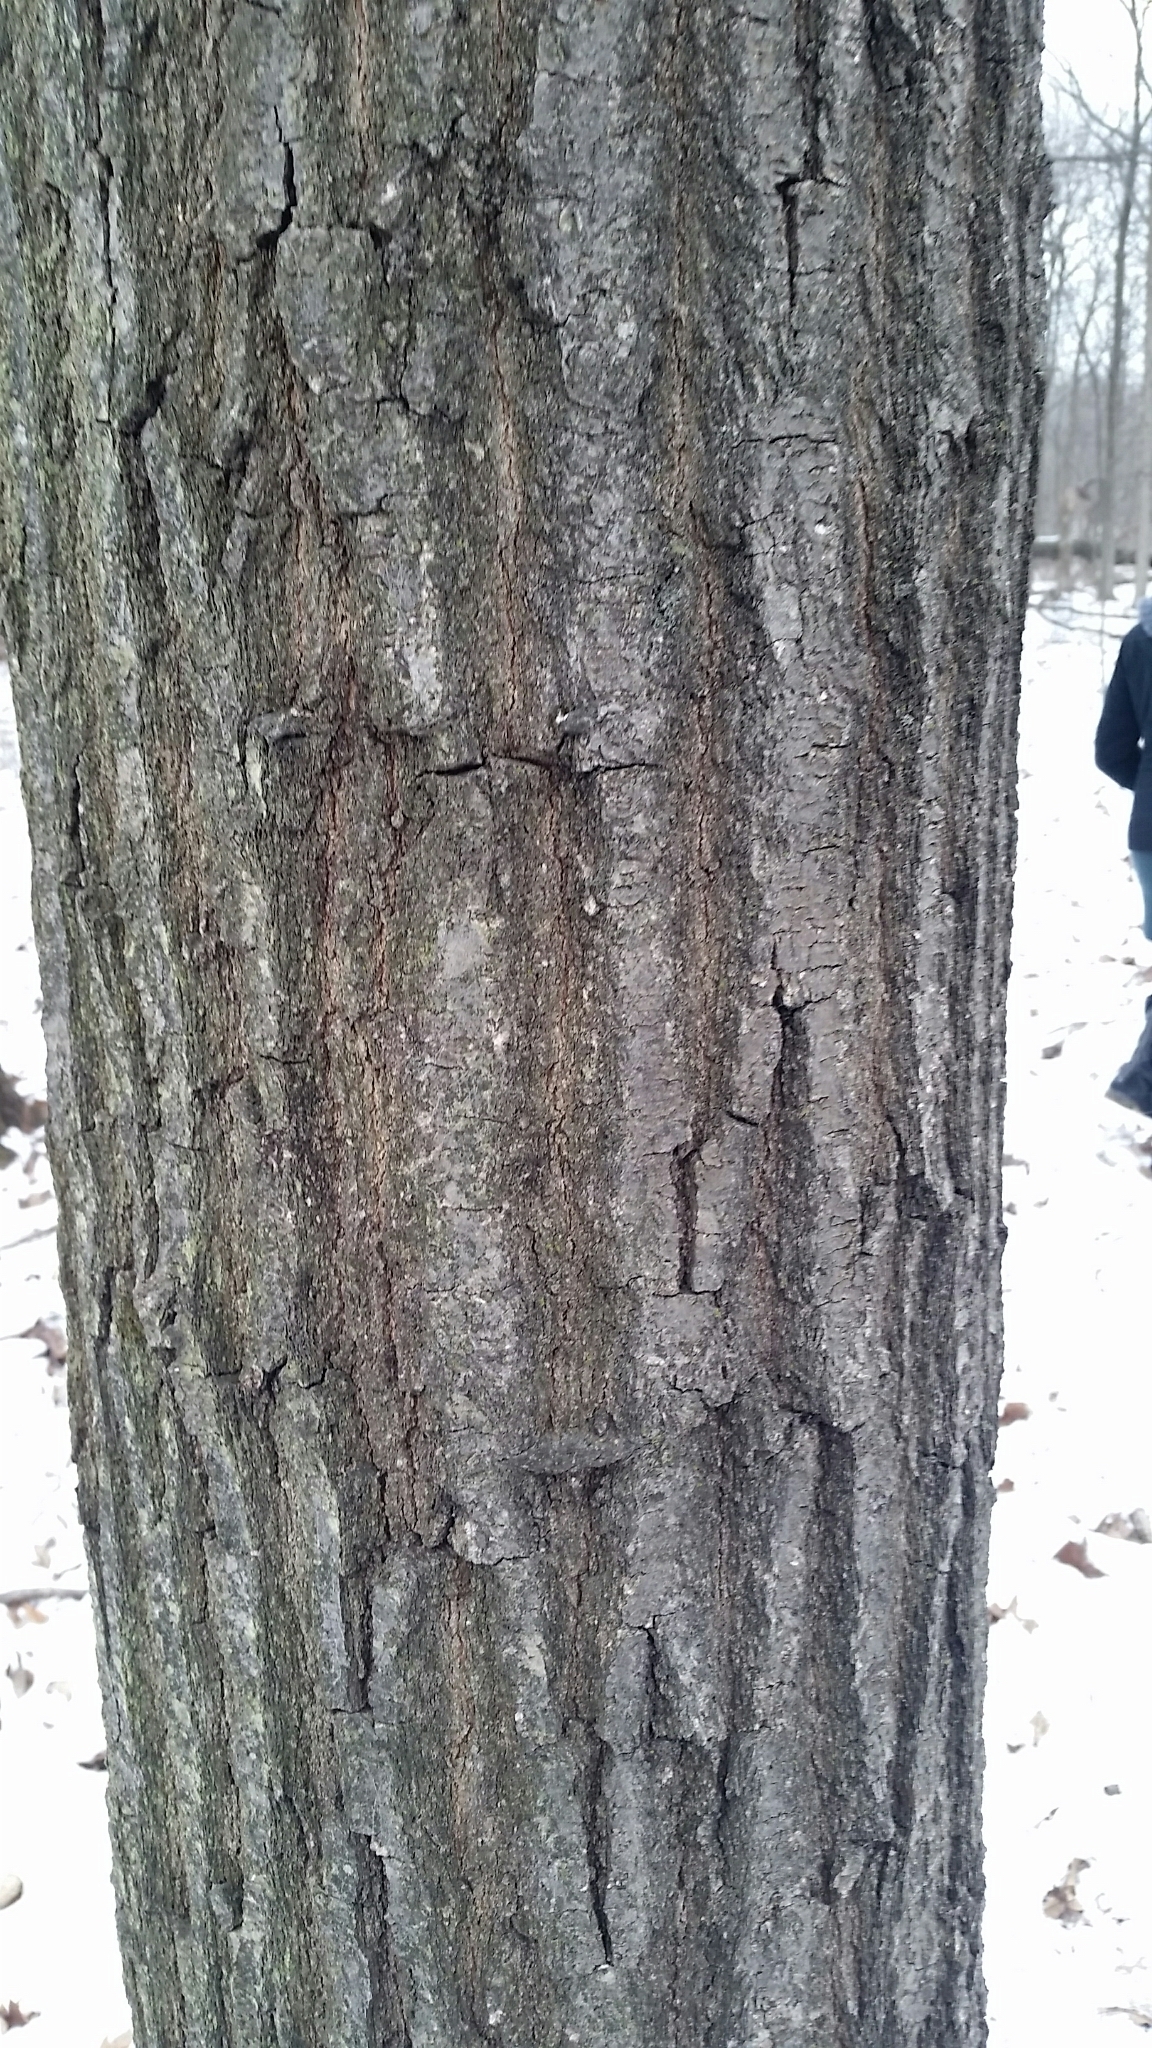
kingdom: Plantae
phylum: Tracheophyta
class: Magnoliopsida
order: Fagales
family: Fagaceae
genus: Quercus
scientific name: Quercus rubra
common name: Red oak
